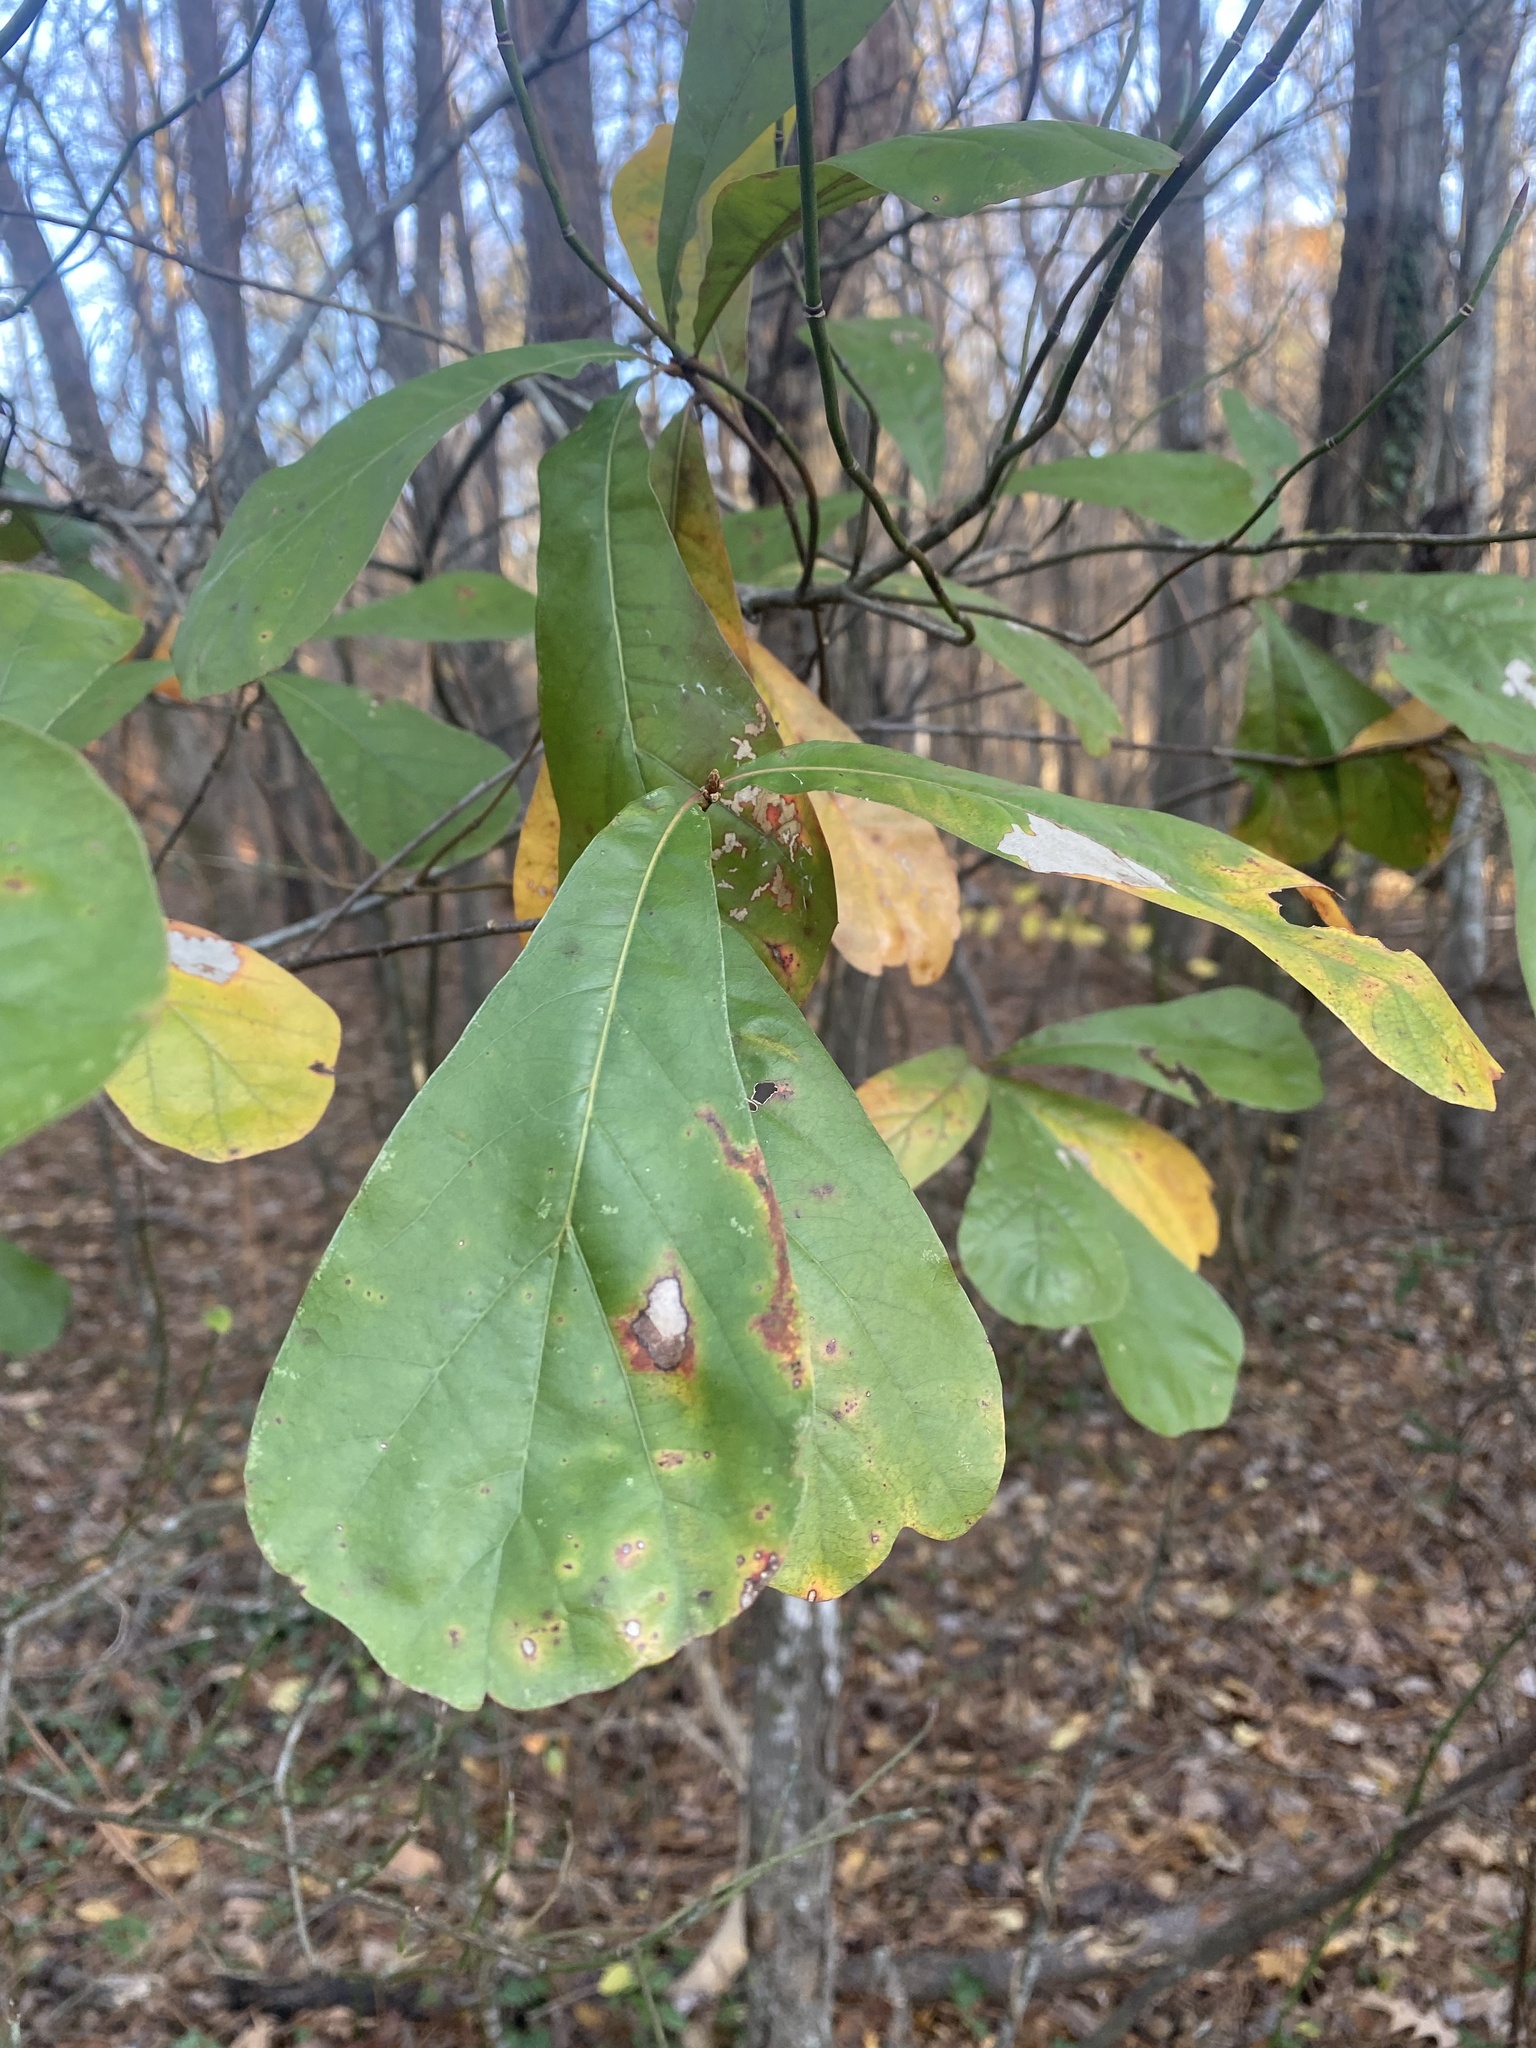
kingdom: Plantae
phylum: Tracheophyta
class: Magnoliopsida
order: Fagales
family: Fagaceae
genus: Quercus
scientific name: Quercus nigra
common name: Water oak
